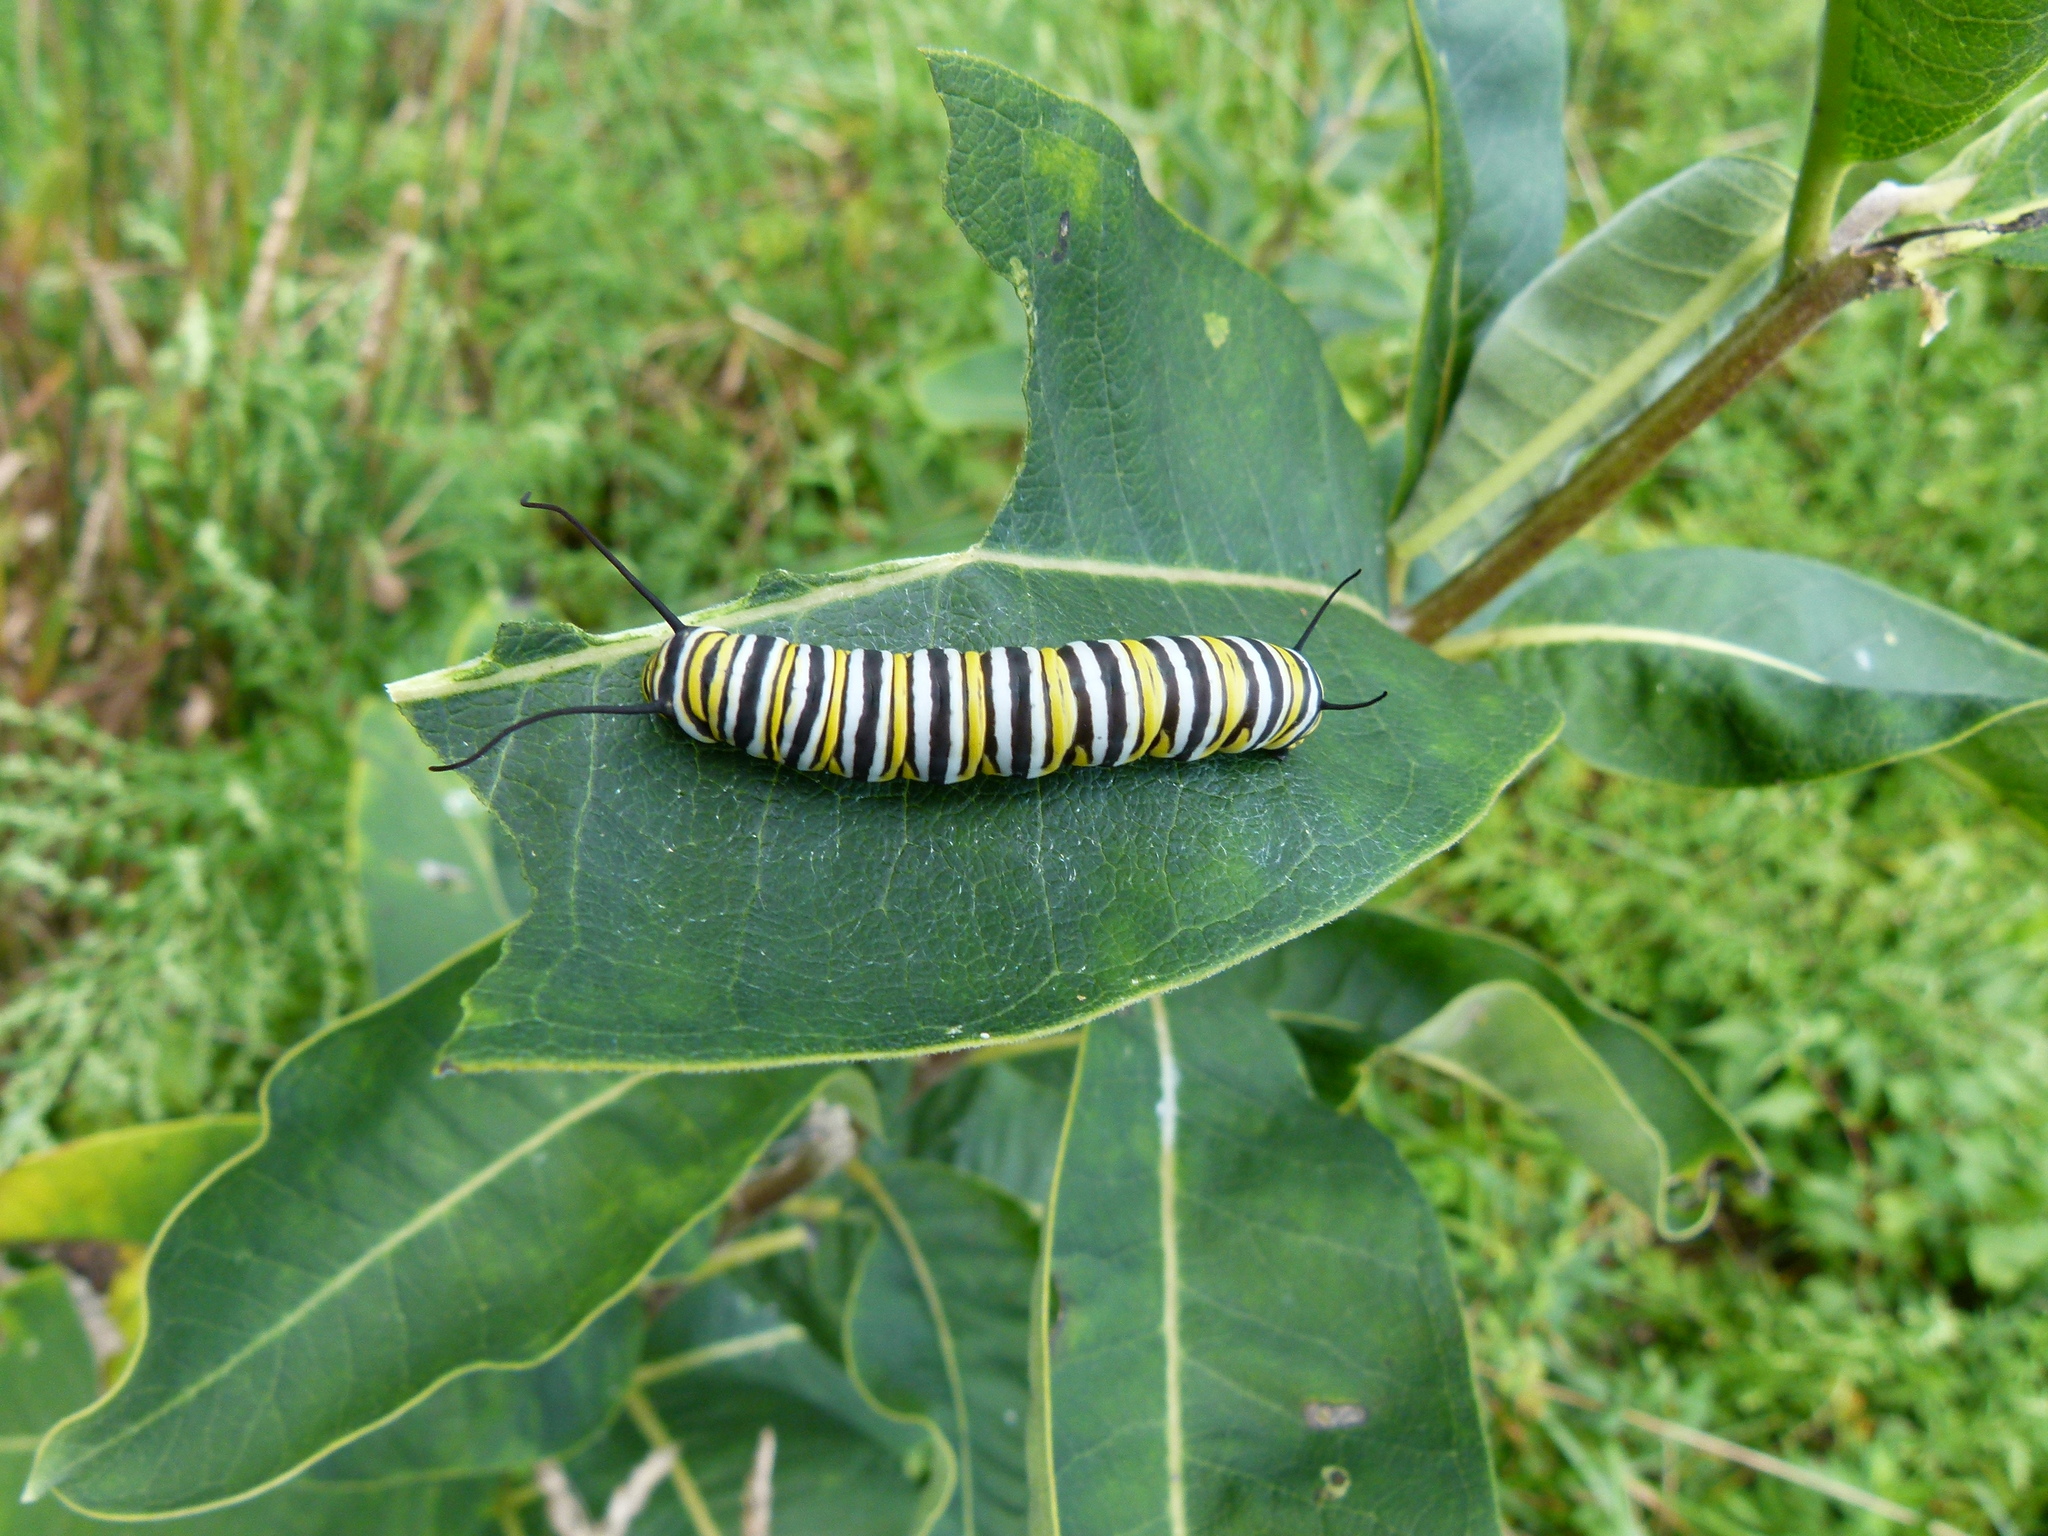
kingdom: Animalia
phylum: Arthropoda
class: Insecta
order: Lepidoptera
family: Nymphalidae
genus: Danaus
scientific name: Danaus plexippus
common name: Monarch
